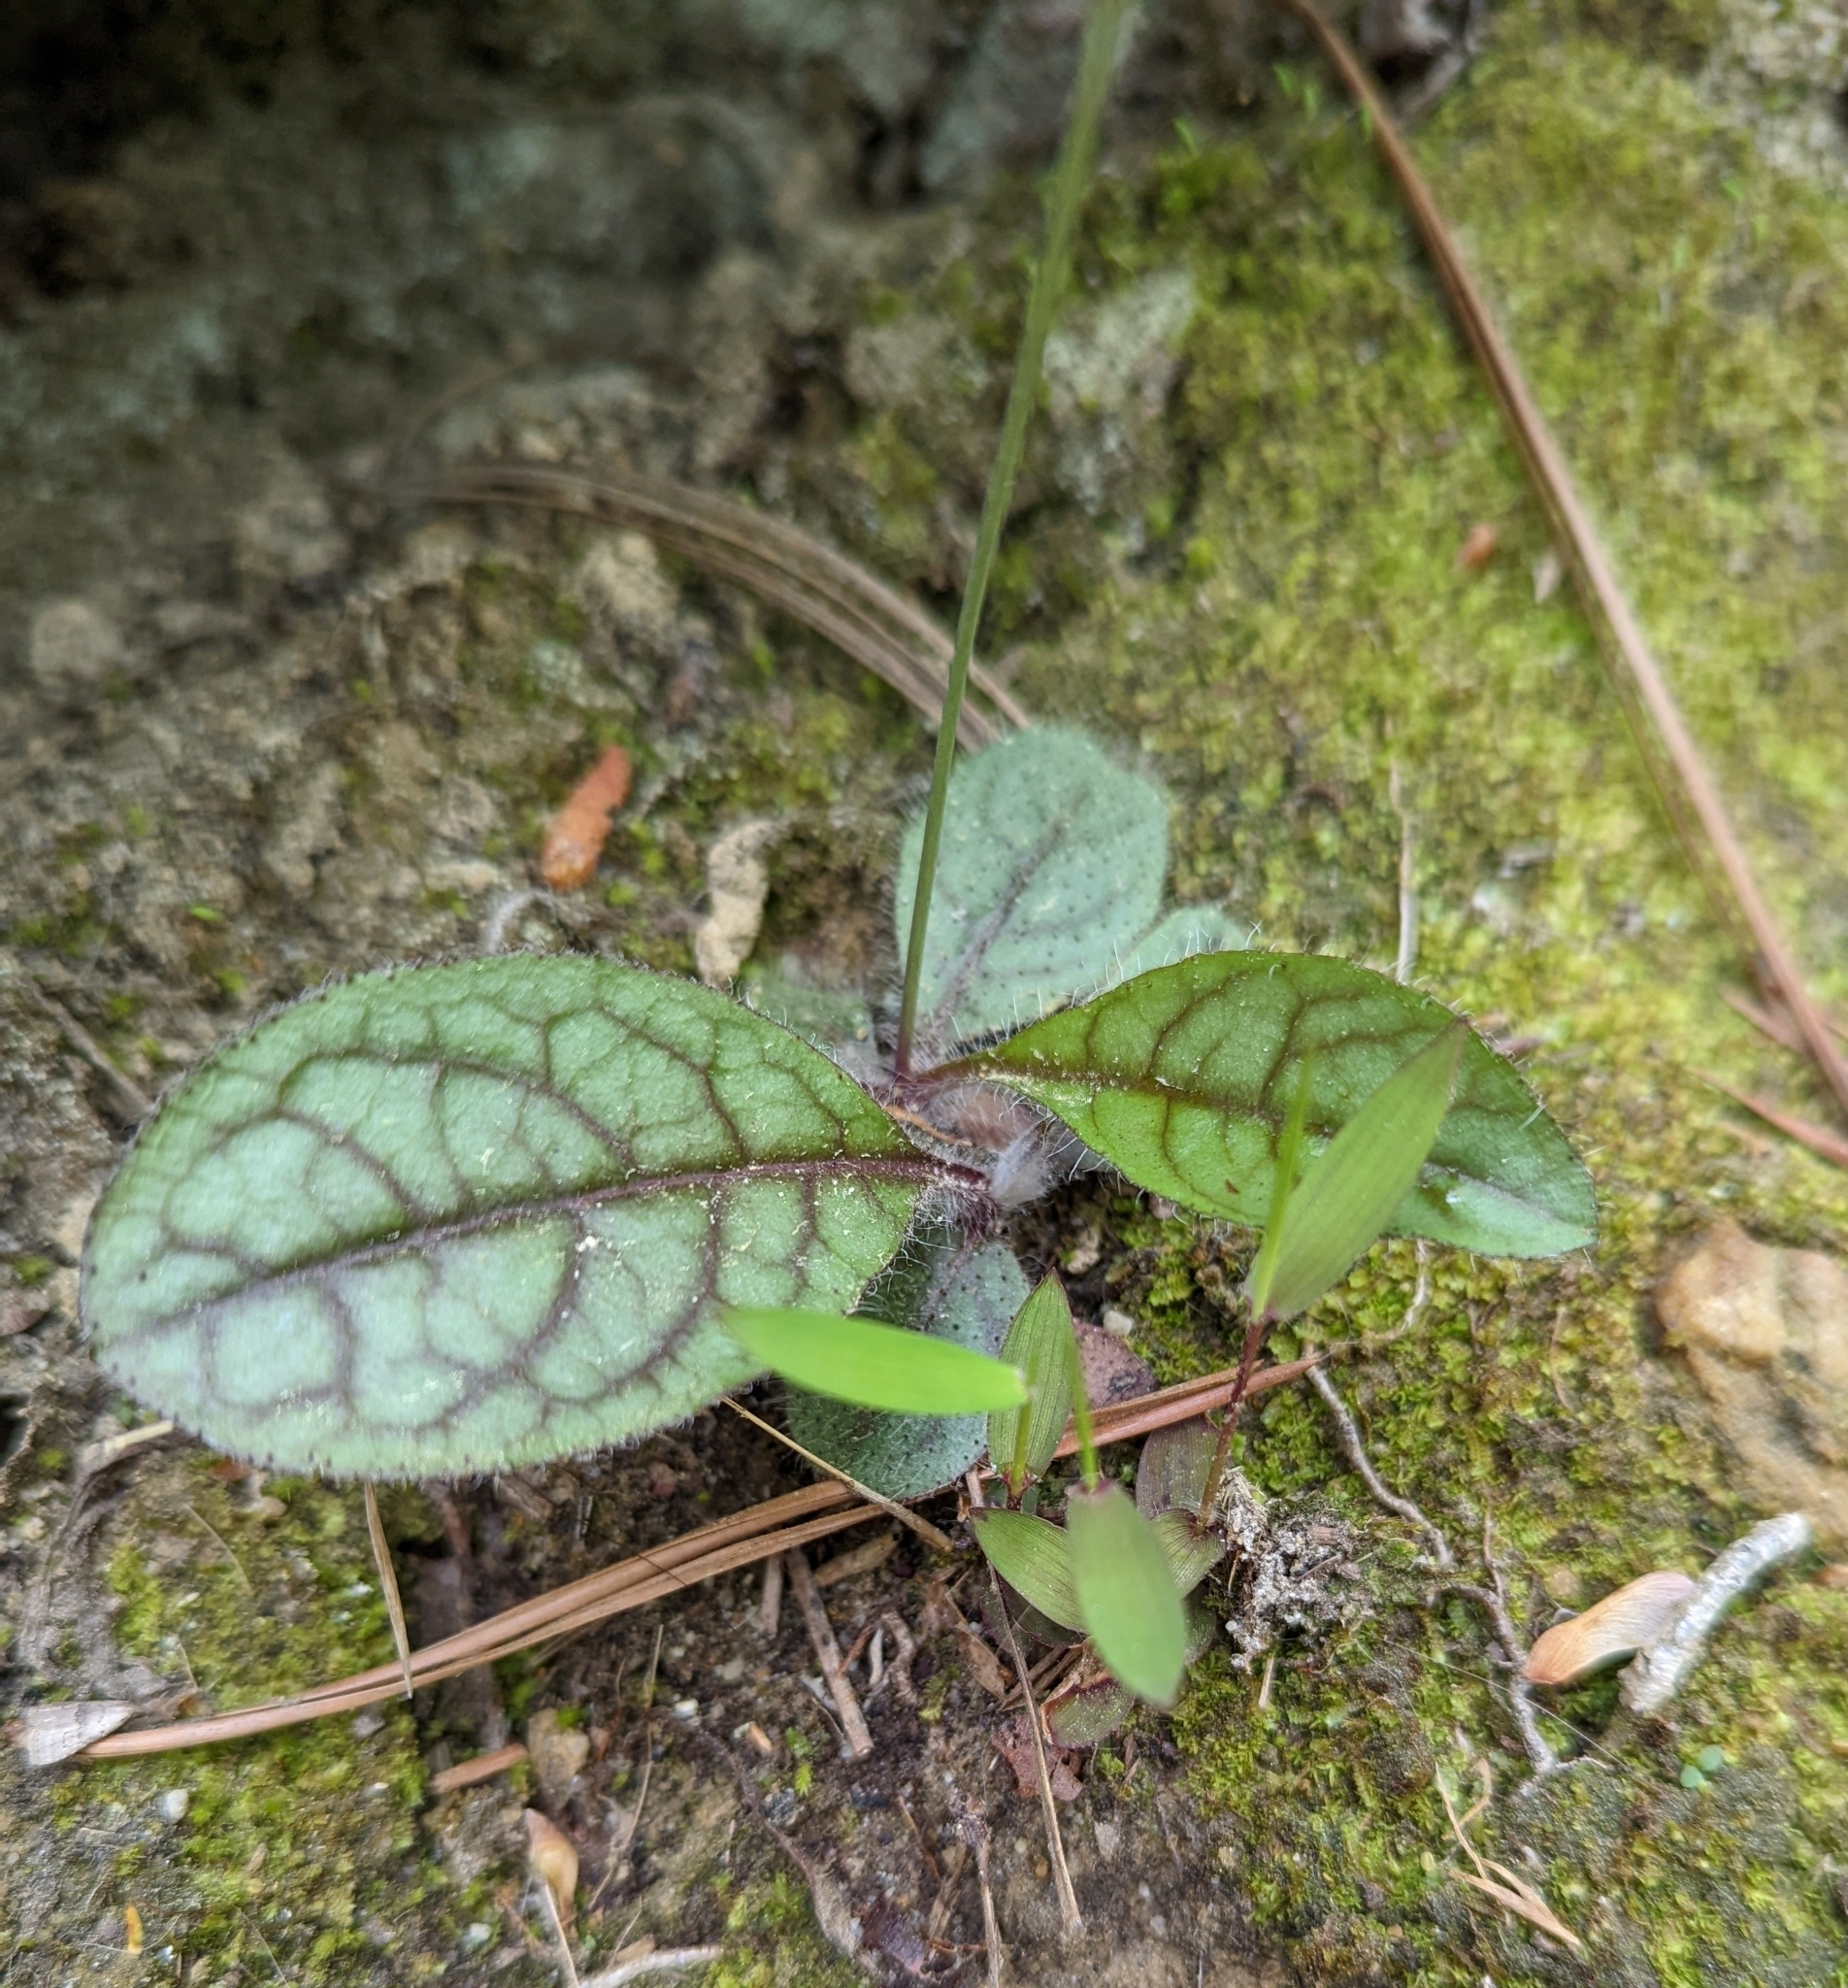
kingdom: Plantae
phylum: Tracheophyta
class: Magnoliopsida
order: Asterales
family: Asteraceae
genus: Hieracium
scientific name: Hieracium venosum
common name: Rattlesnake hawkweed
